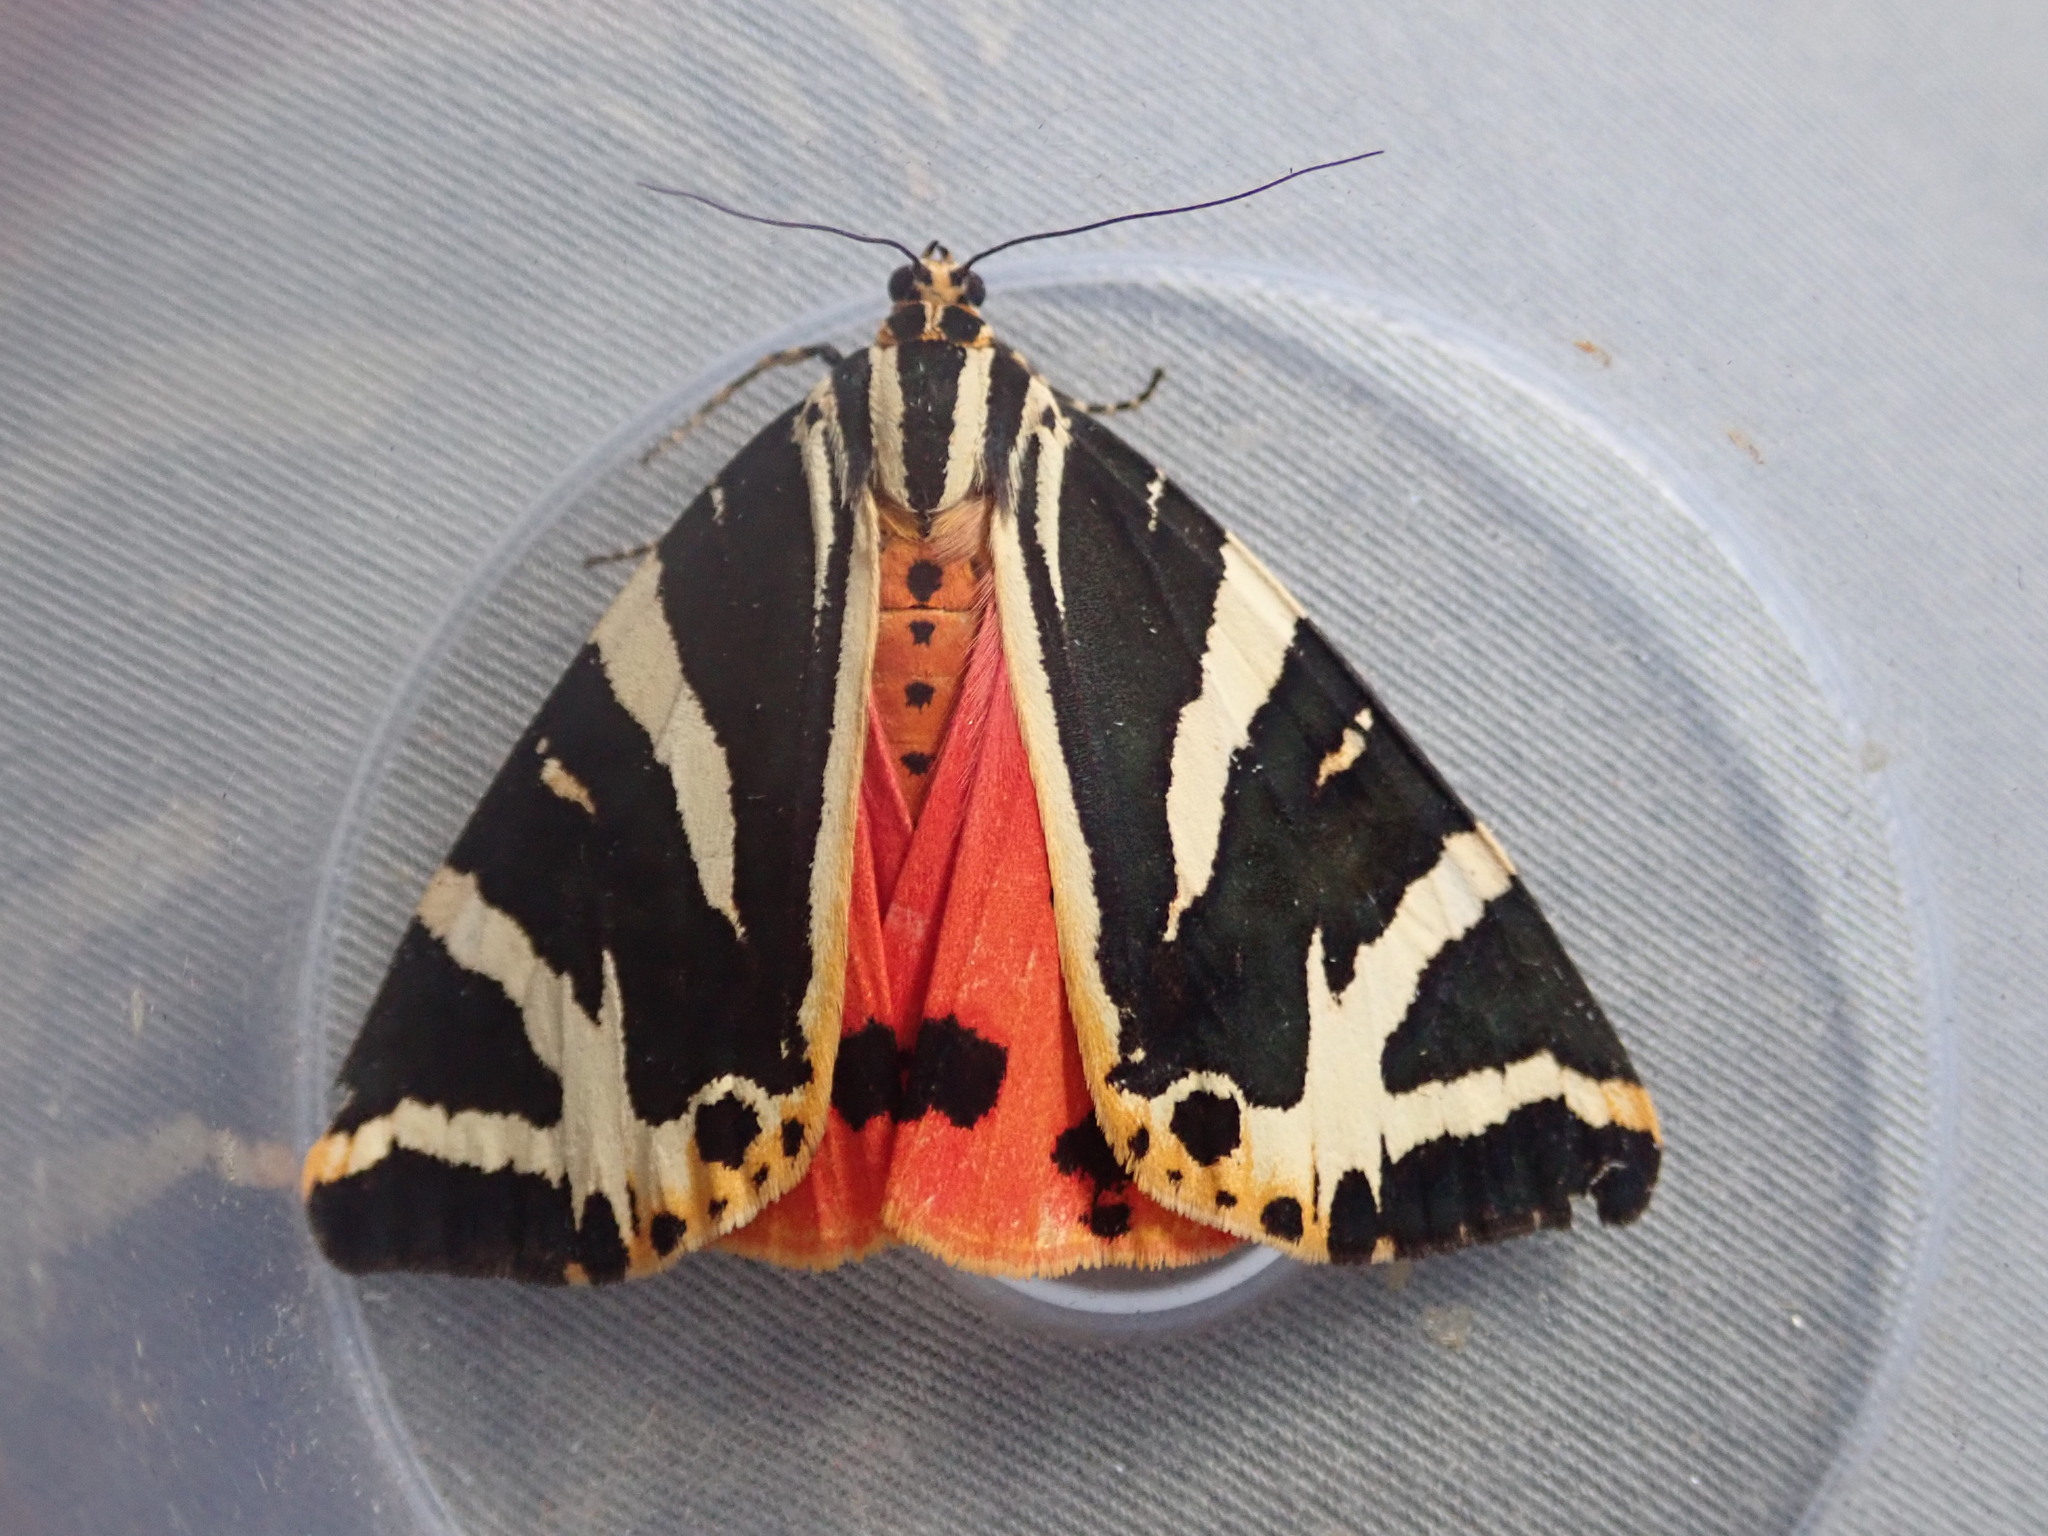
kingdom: Animalia
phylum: Arthropoda
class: Insecta
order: Lepidoptera
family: Erebidae
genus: Euplagia
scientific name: Euplagia quadripunctaria
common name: Jersey tiger
